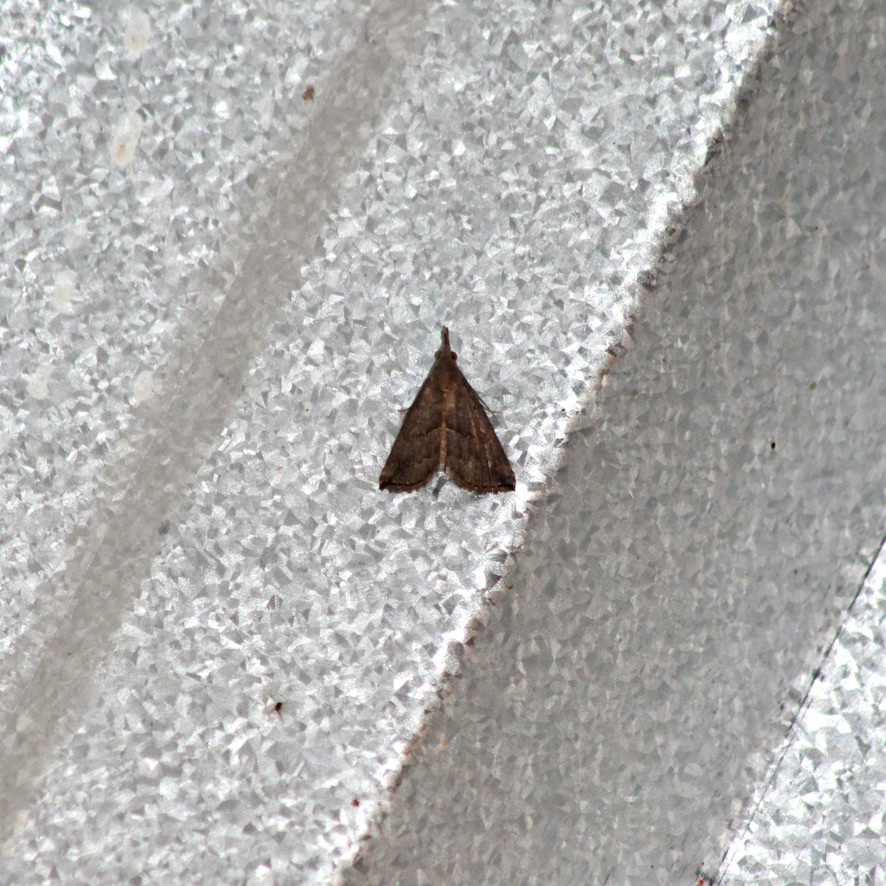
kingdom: Animalia
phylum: Arthropoda
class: Insecta
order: Lepidoptera
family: Erebidae
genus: Hypena
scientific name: Hypena porrectalis
